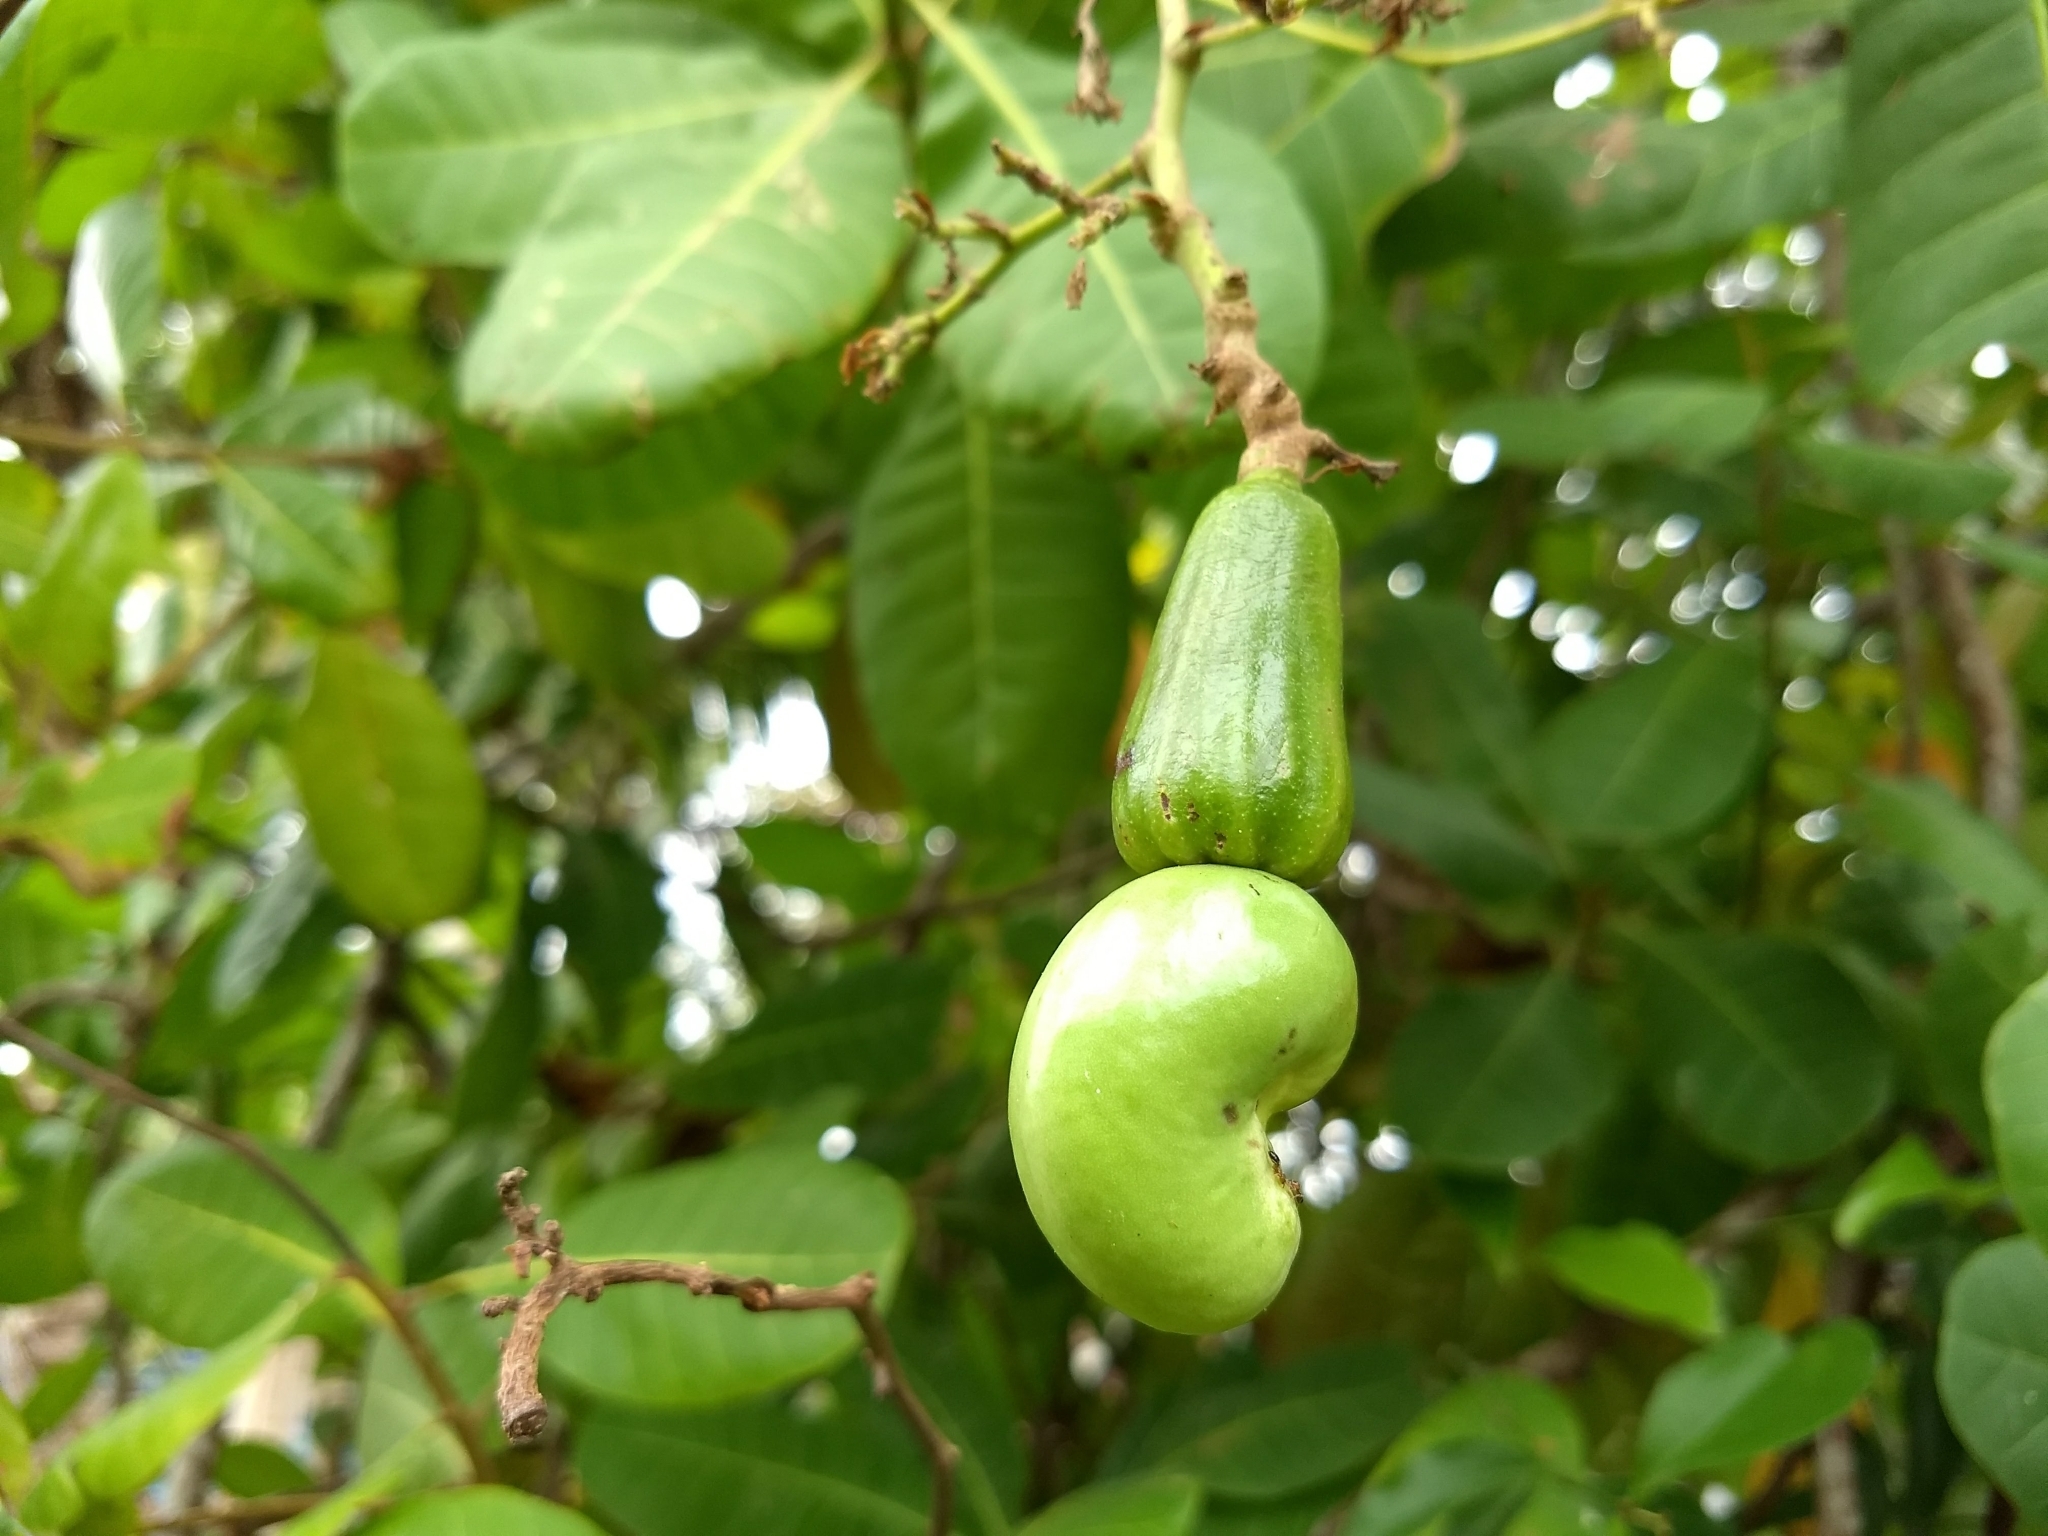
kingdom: Plantae
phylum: Tracheophyta
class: Magnoliopsida
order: Sapindales
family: Anacardiaceae
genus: Anacardium
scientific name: Anacardium occidentale
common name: Cashew
